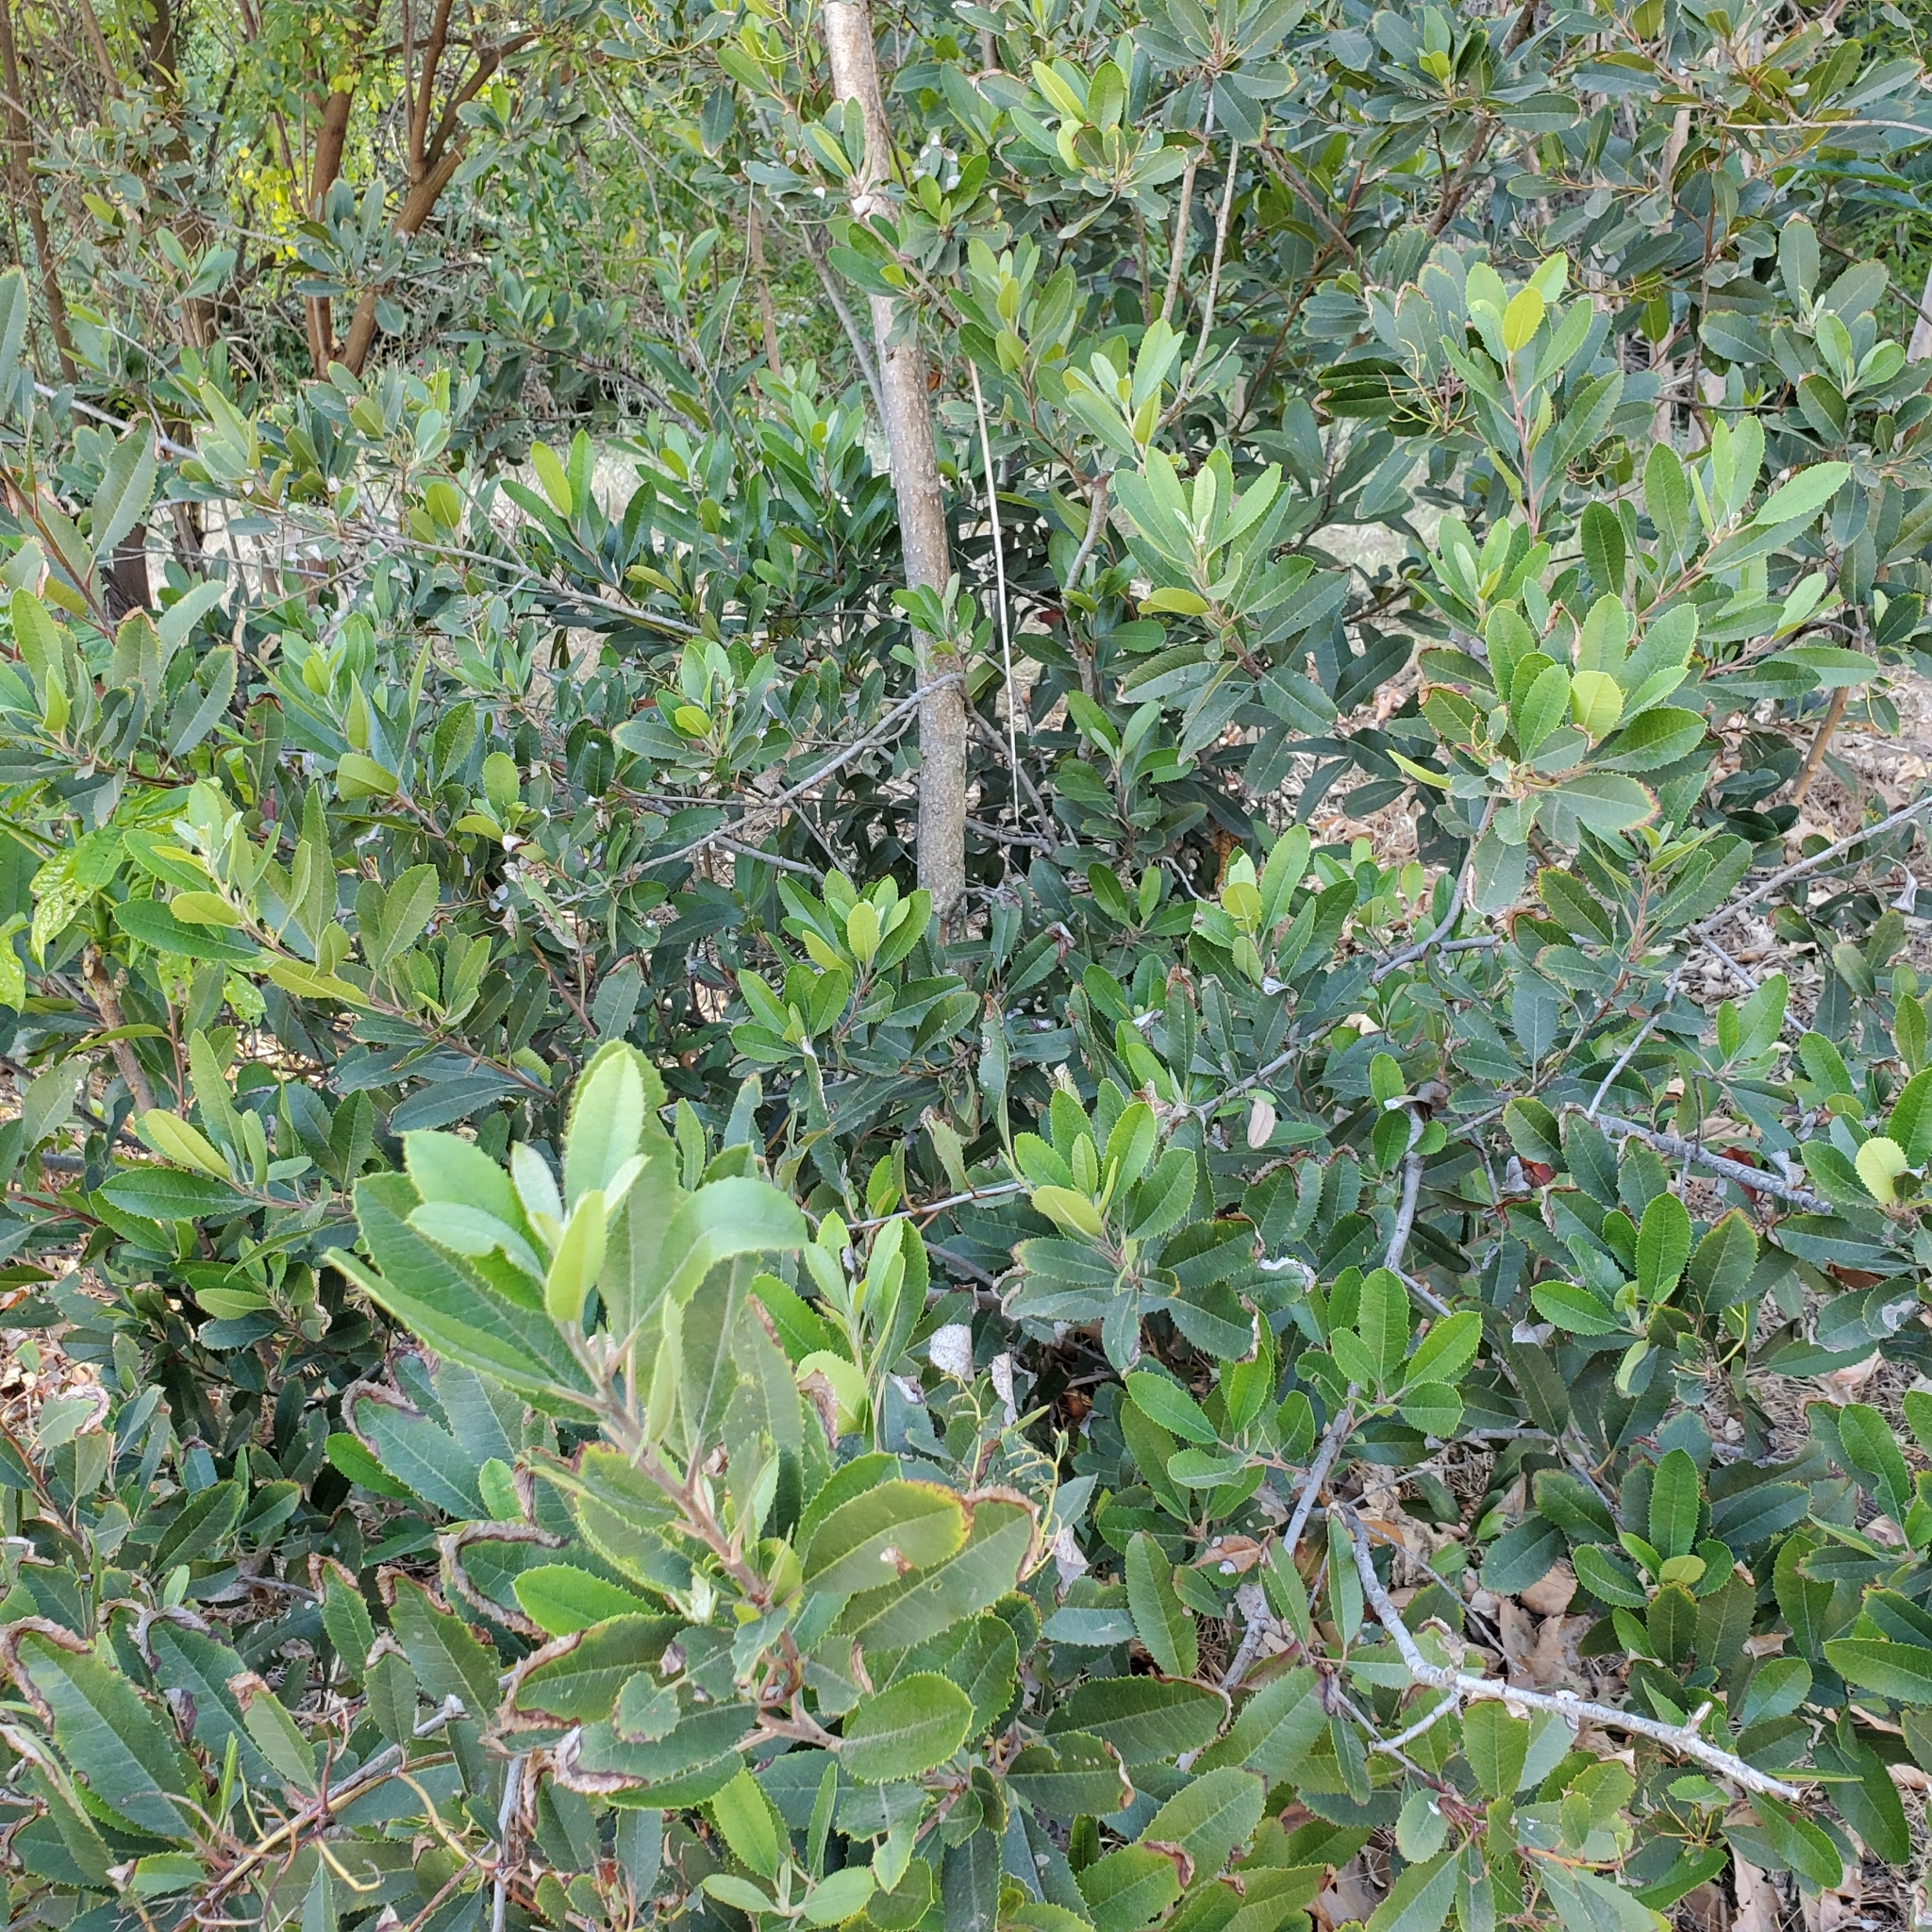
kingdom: Plantae
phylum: Tracheophyta
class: Magnoliopsida
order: Rosales
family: Rosaceae
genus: Heteromeles
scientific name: Heteromeles arbutifolia
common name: California-holly
